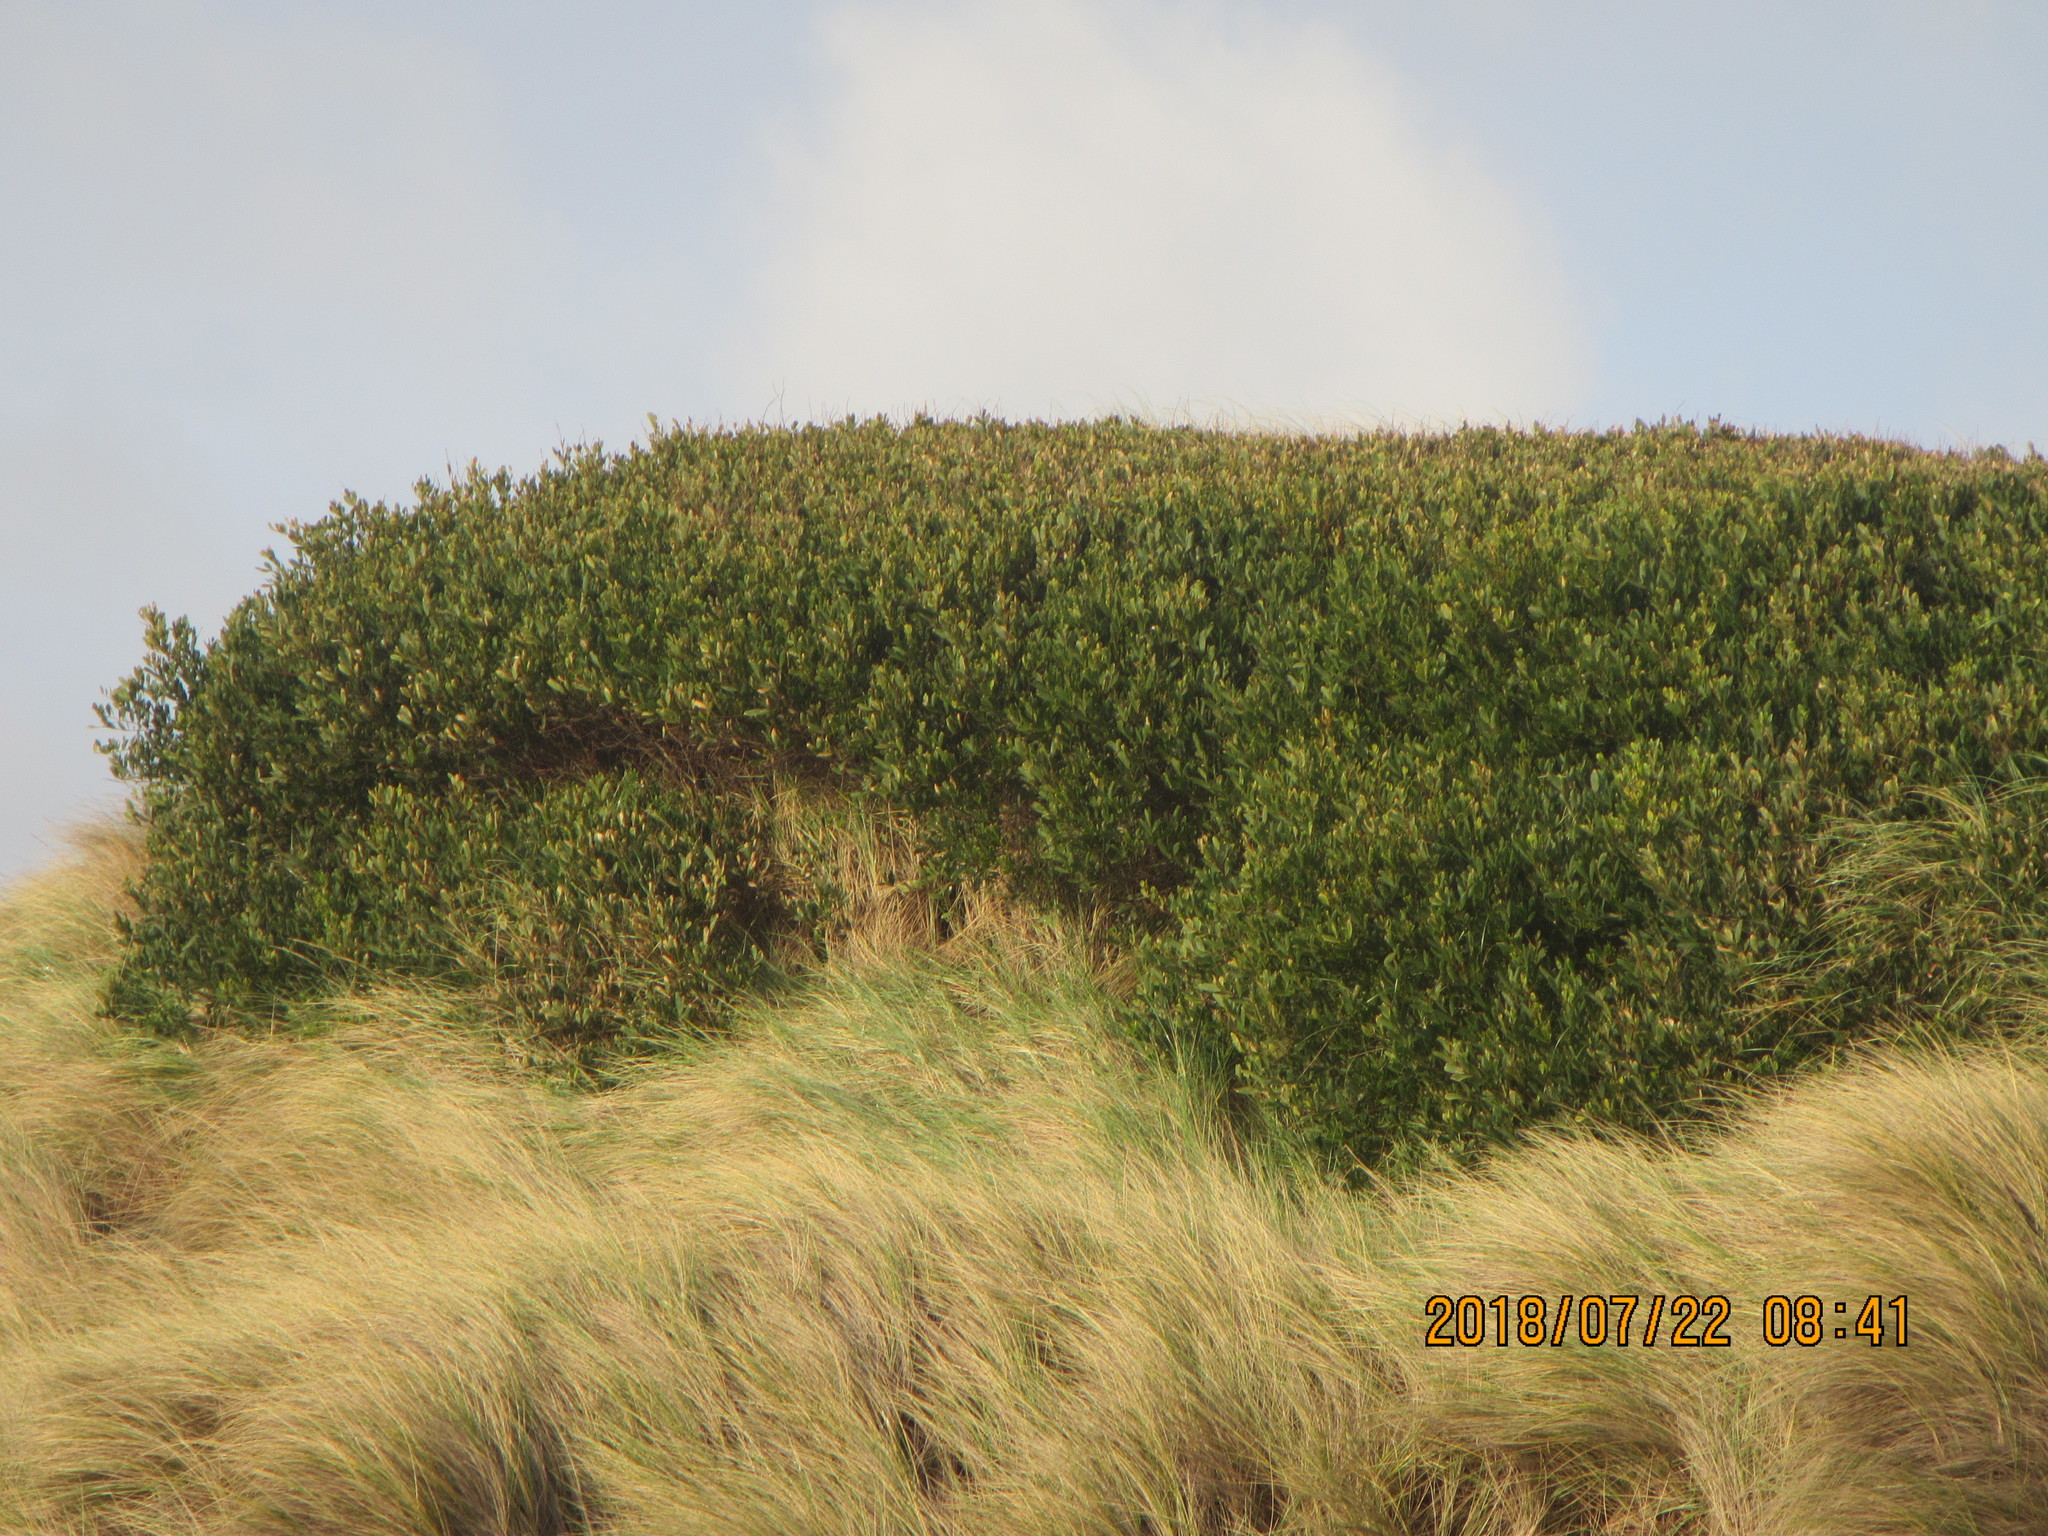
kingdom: Plantae
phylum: Tracheophyta
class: Magnoliopsida
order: Fabales
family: Fabaceae
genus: Acacia
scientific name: Acacia longifolia
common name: Sydney golden wattle
